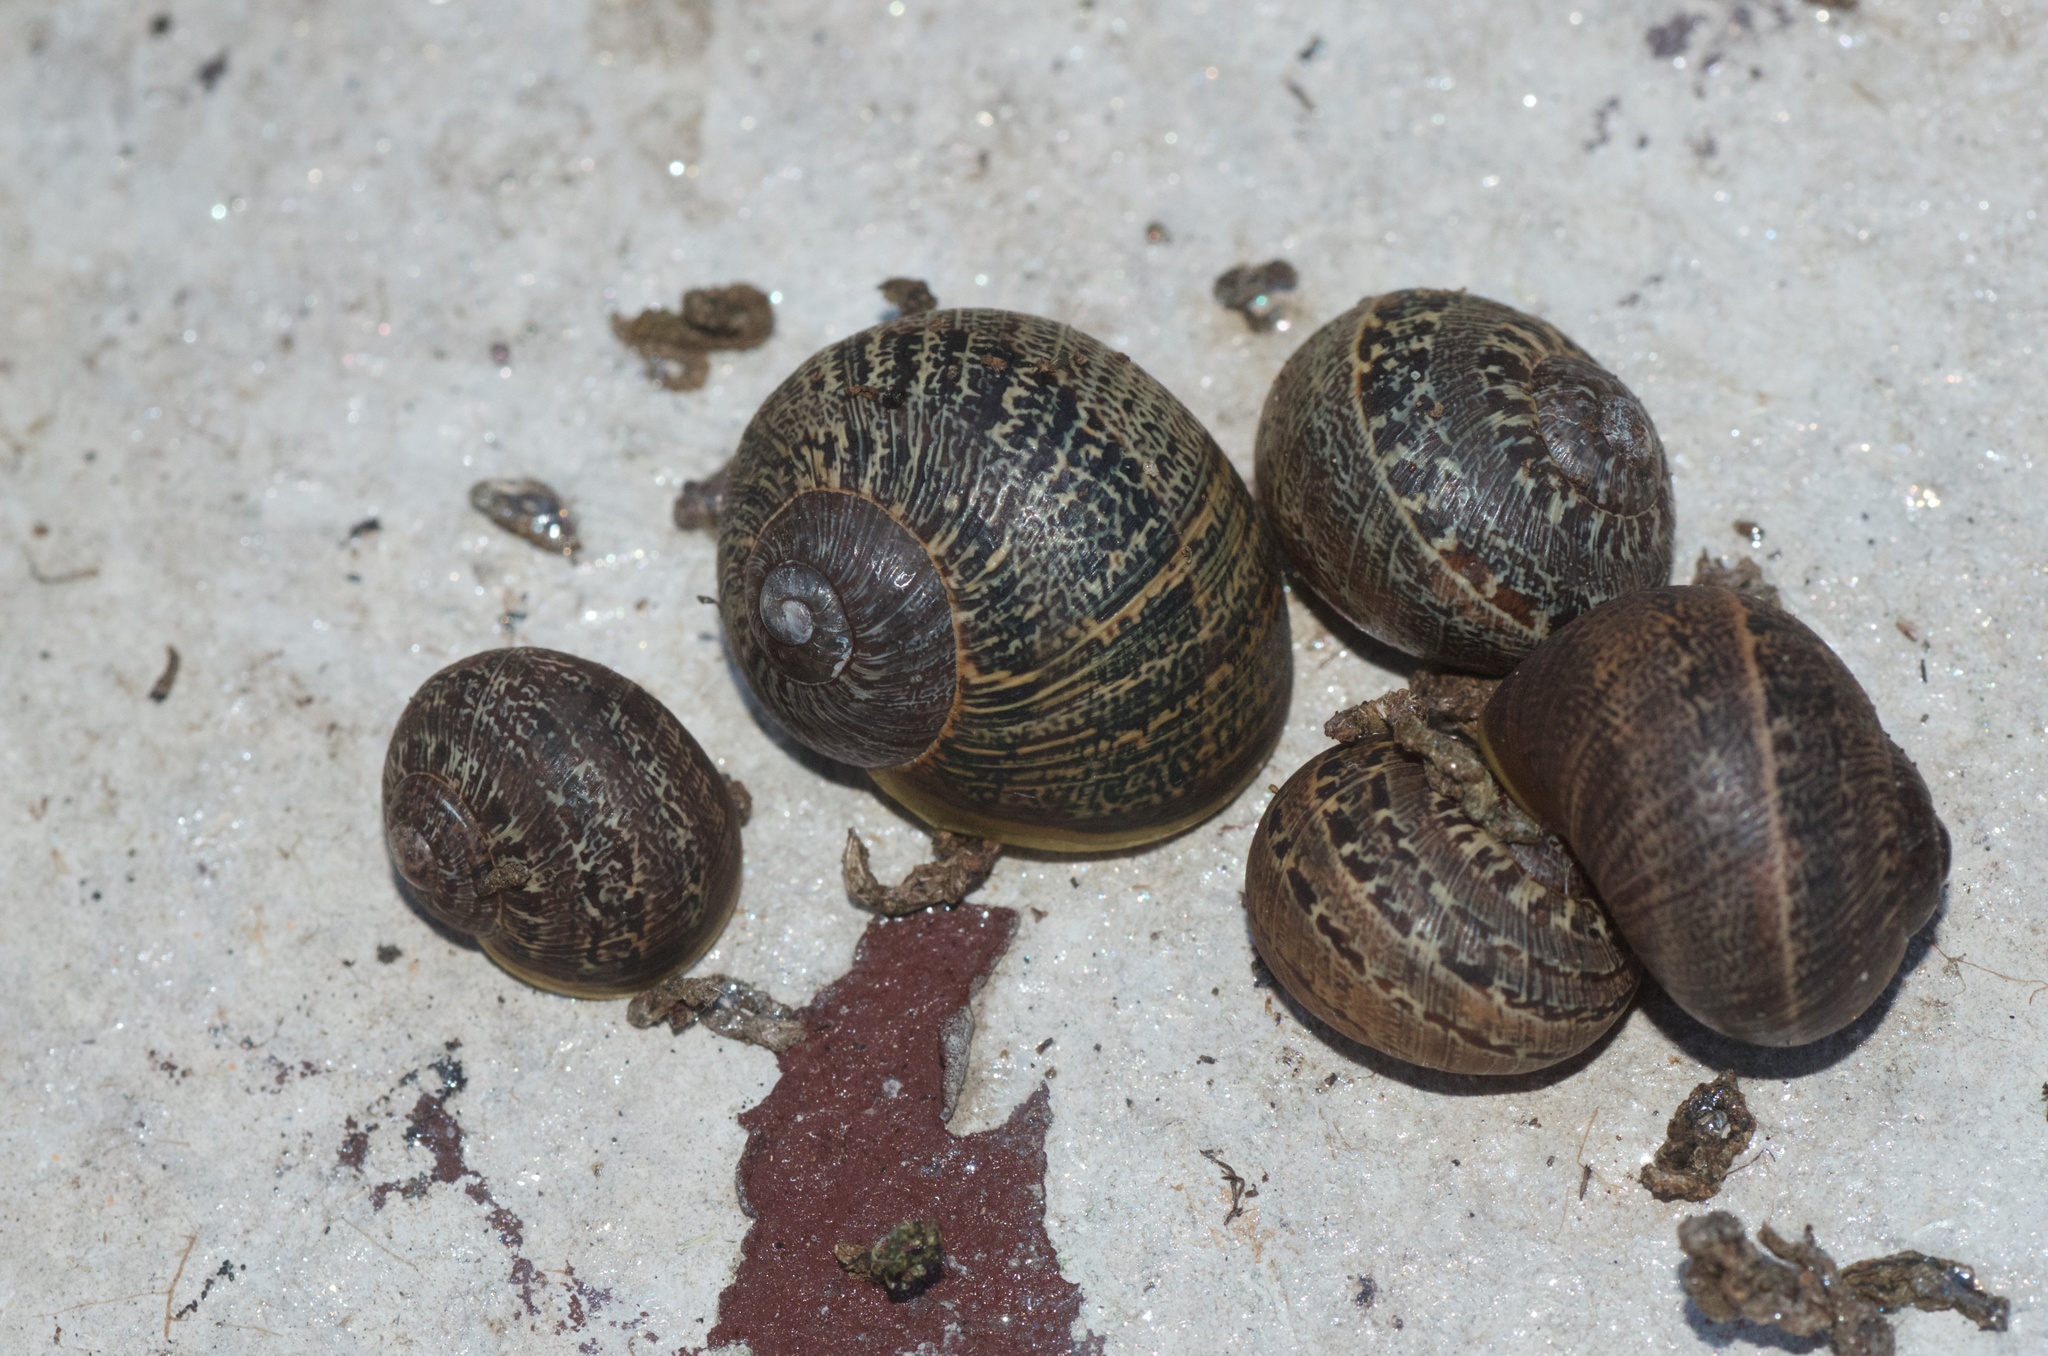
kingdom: Animalia
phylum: Mollusca
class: Gastropoda
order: Stylommatophora
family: Helicidae
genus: Cornu
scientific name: Cornu aspersum
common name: Brown garden snail
